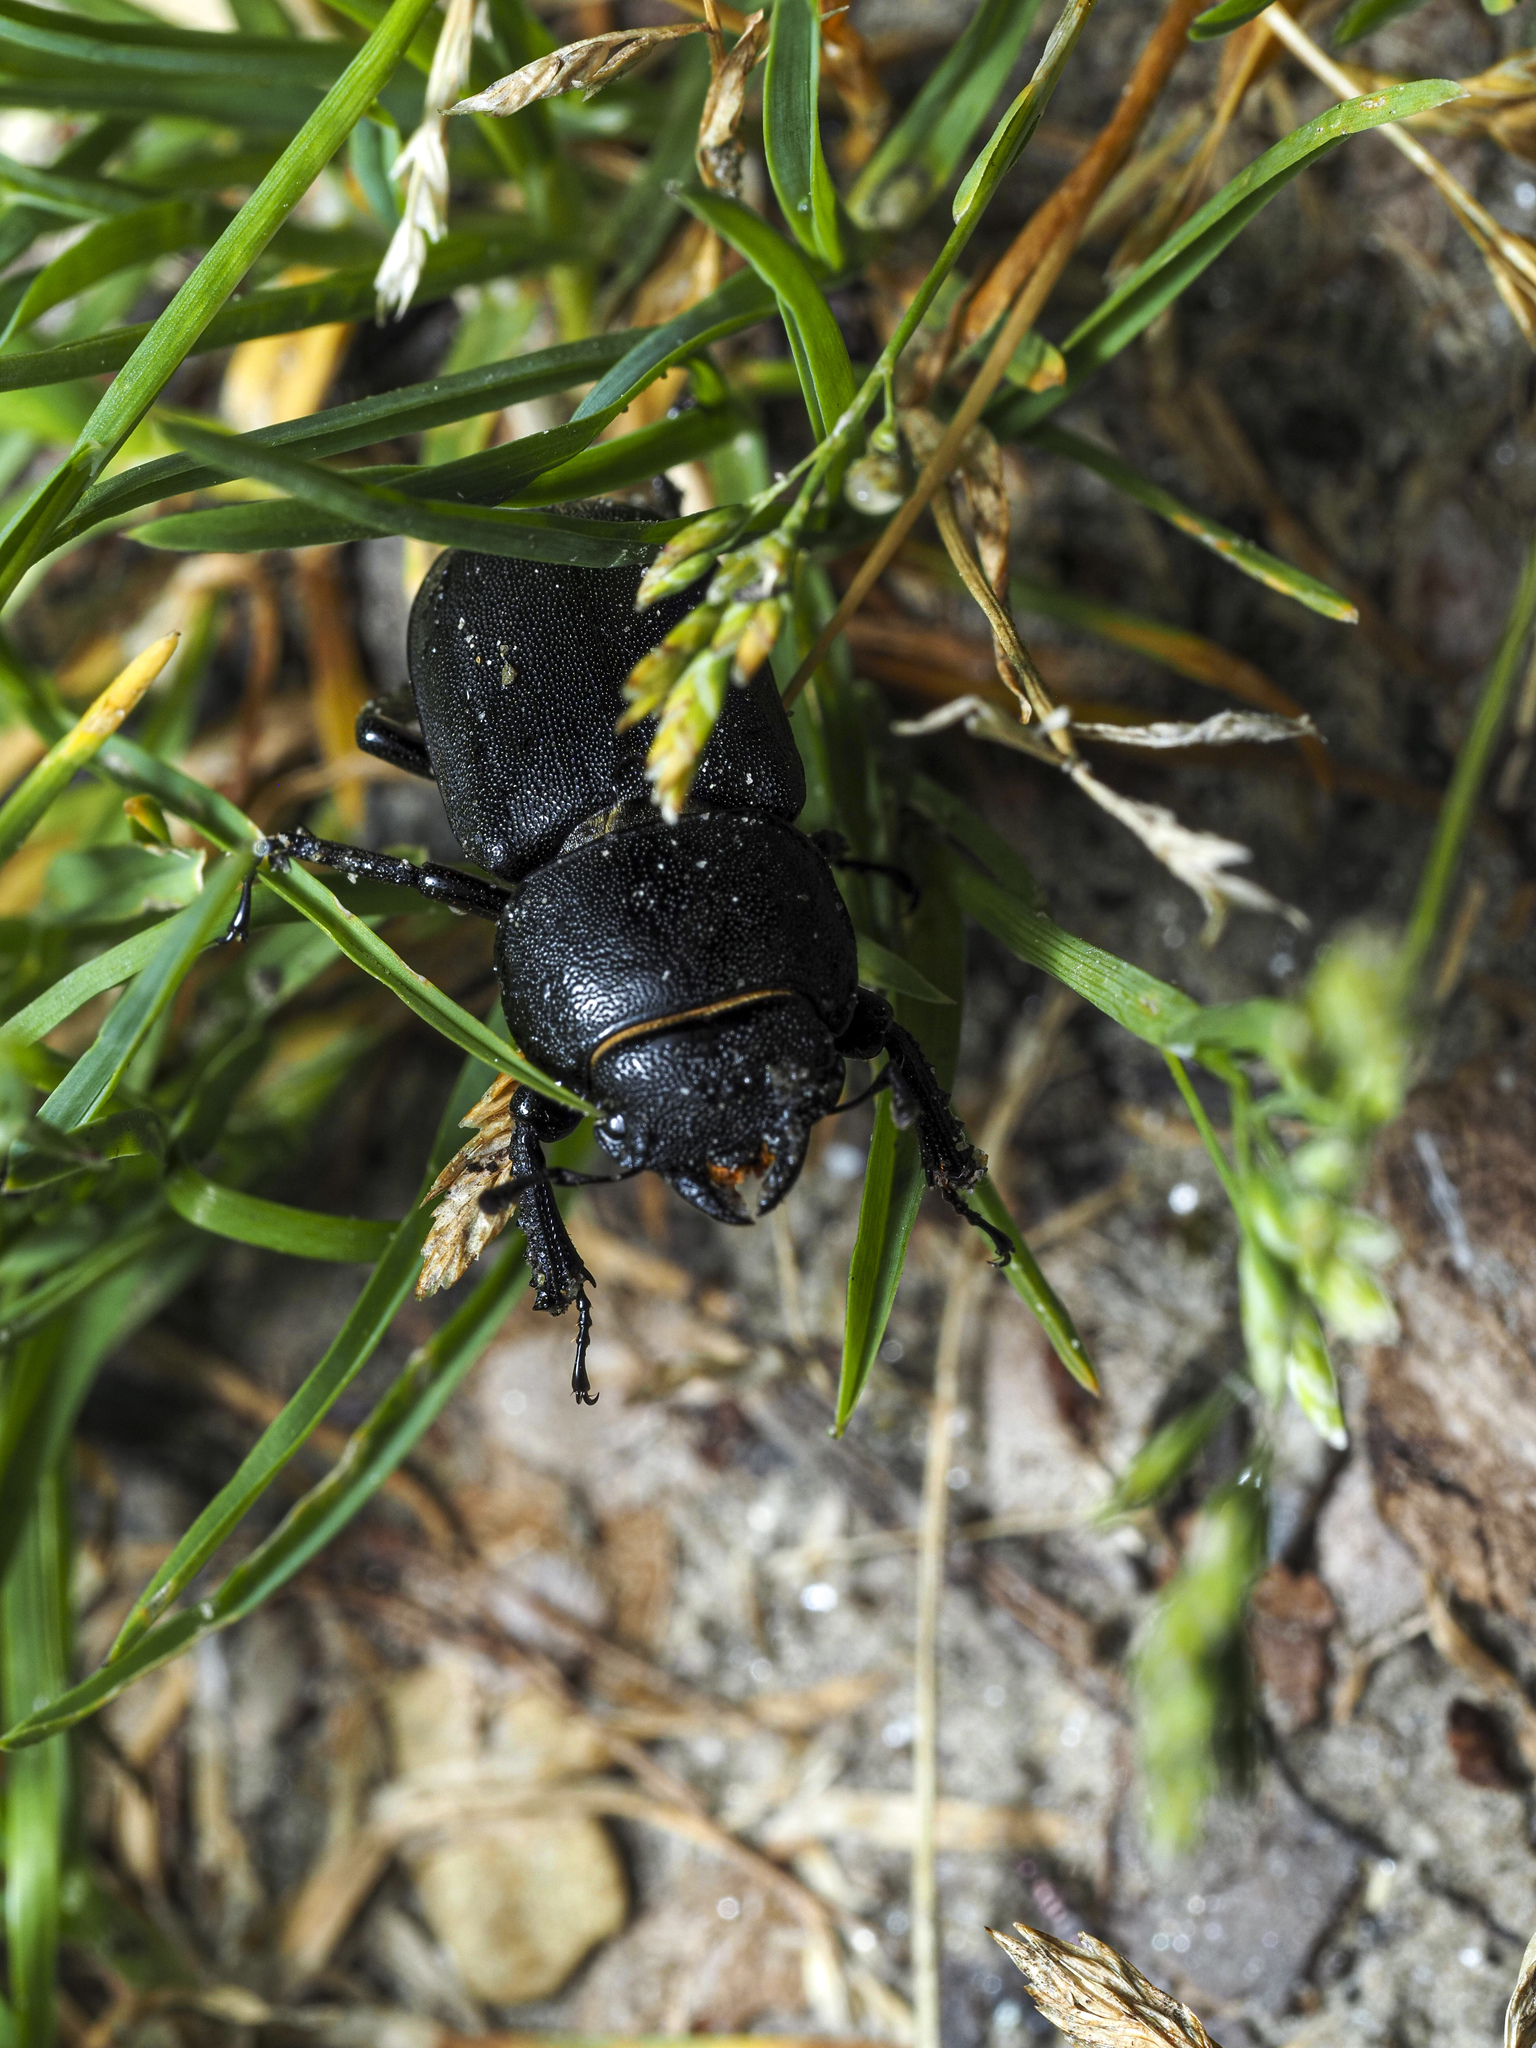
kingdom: Animalia
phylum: Arthropoda
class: Insecta
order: Coleoptera
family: Lucanidae
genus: Dorcus
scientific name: Dorcus parallelipipedus
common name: Lesser stag beetle
